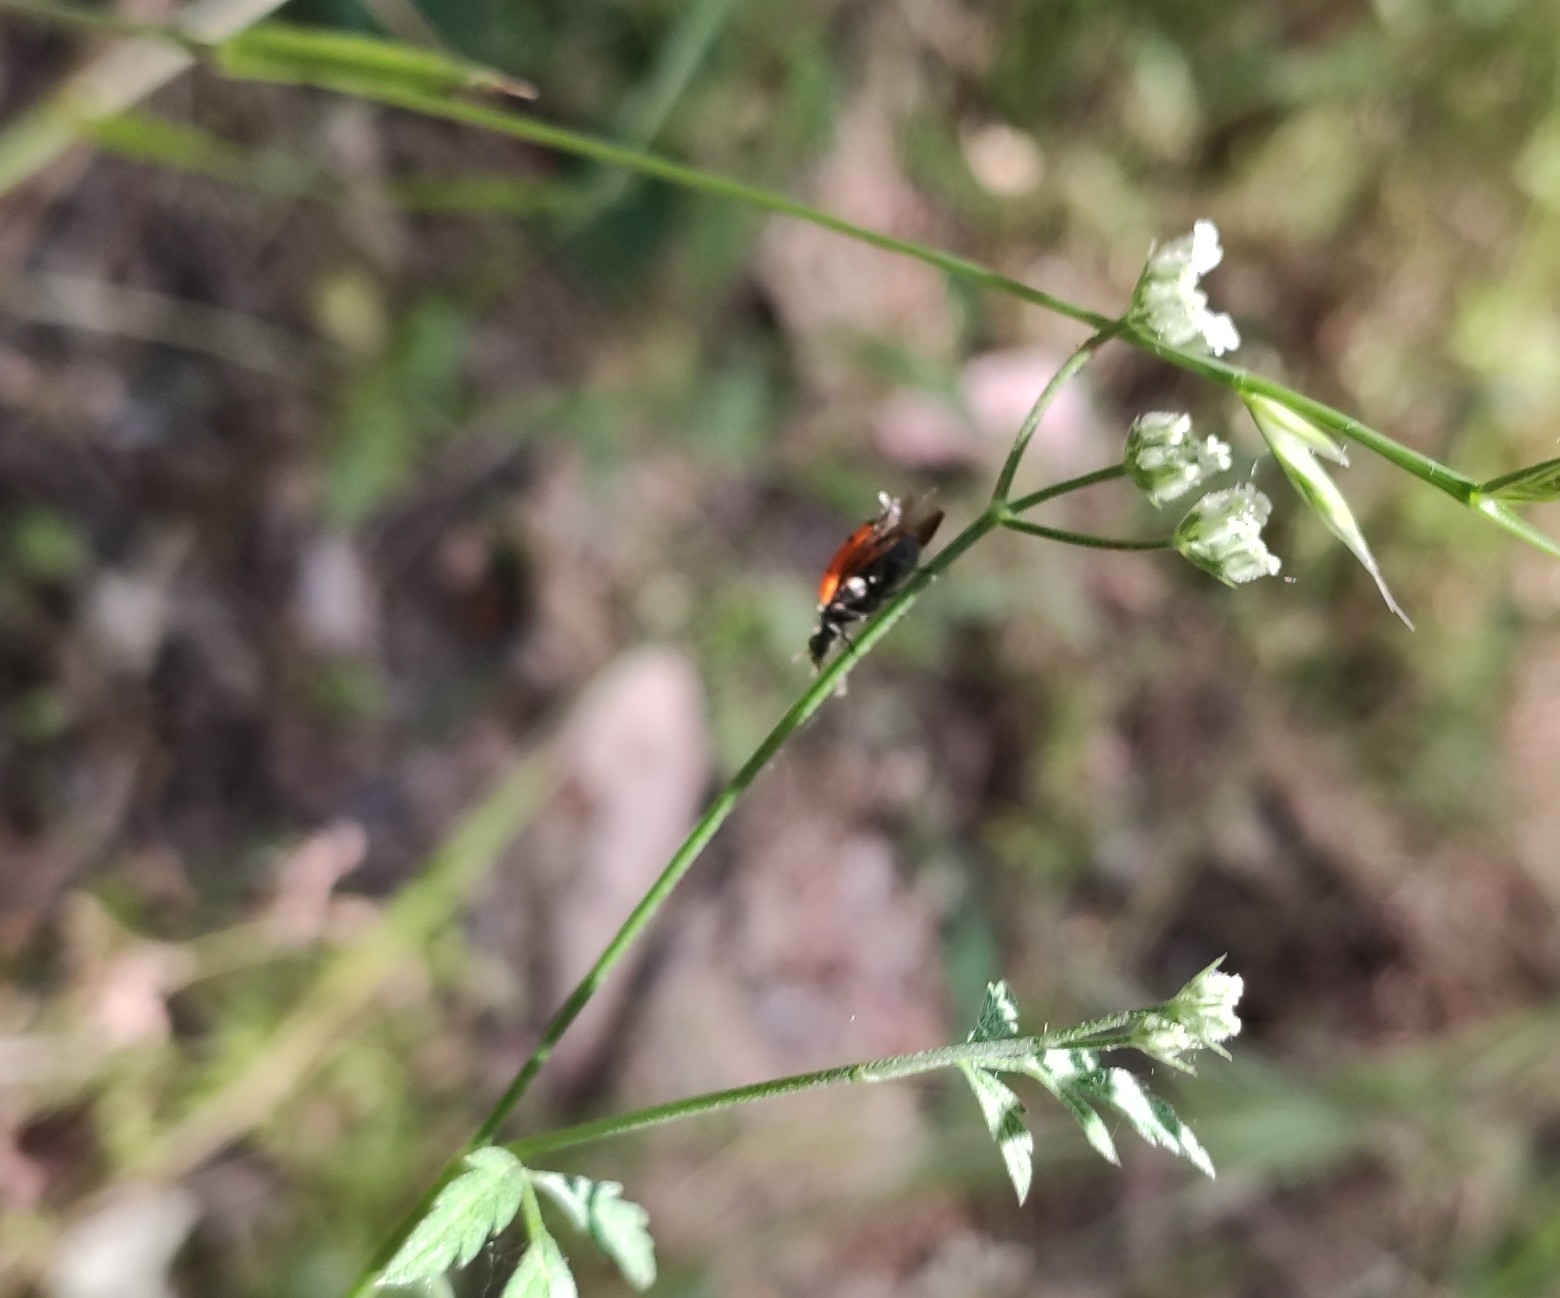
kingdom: Animalia
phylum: Arthropoda
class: Insecta
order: Coleoptera
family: Coccinellidae
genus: Hippodamia
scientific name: Hippodamia convergens
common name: Convergent lady beetle
